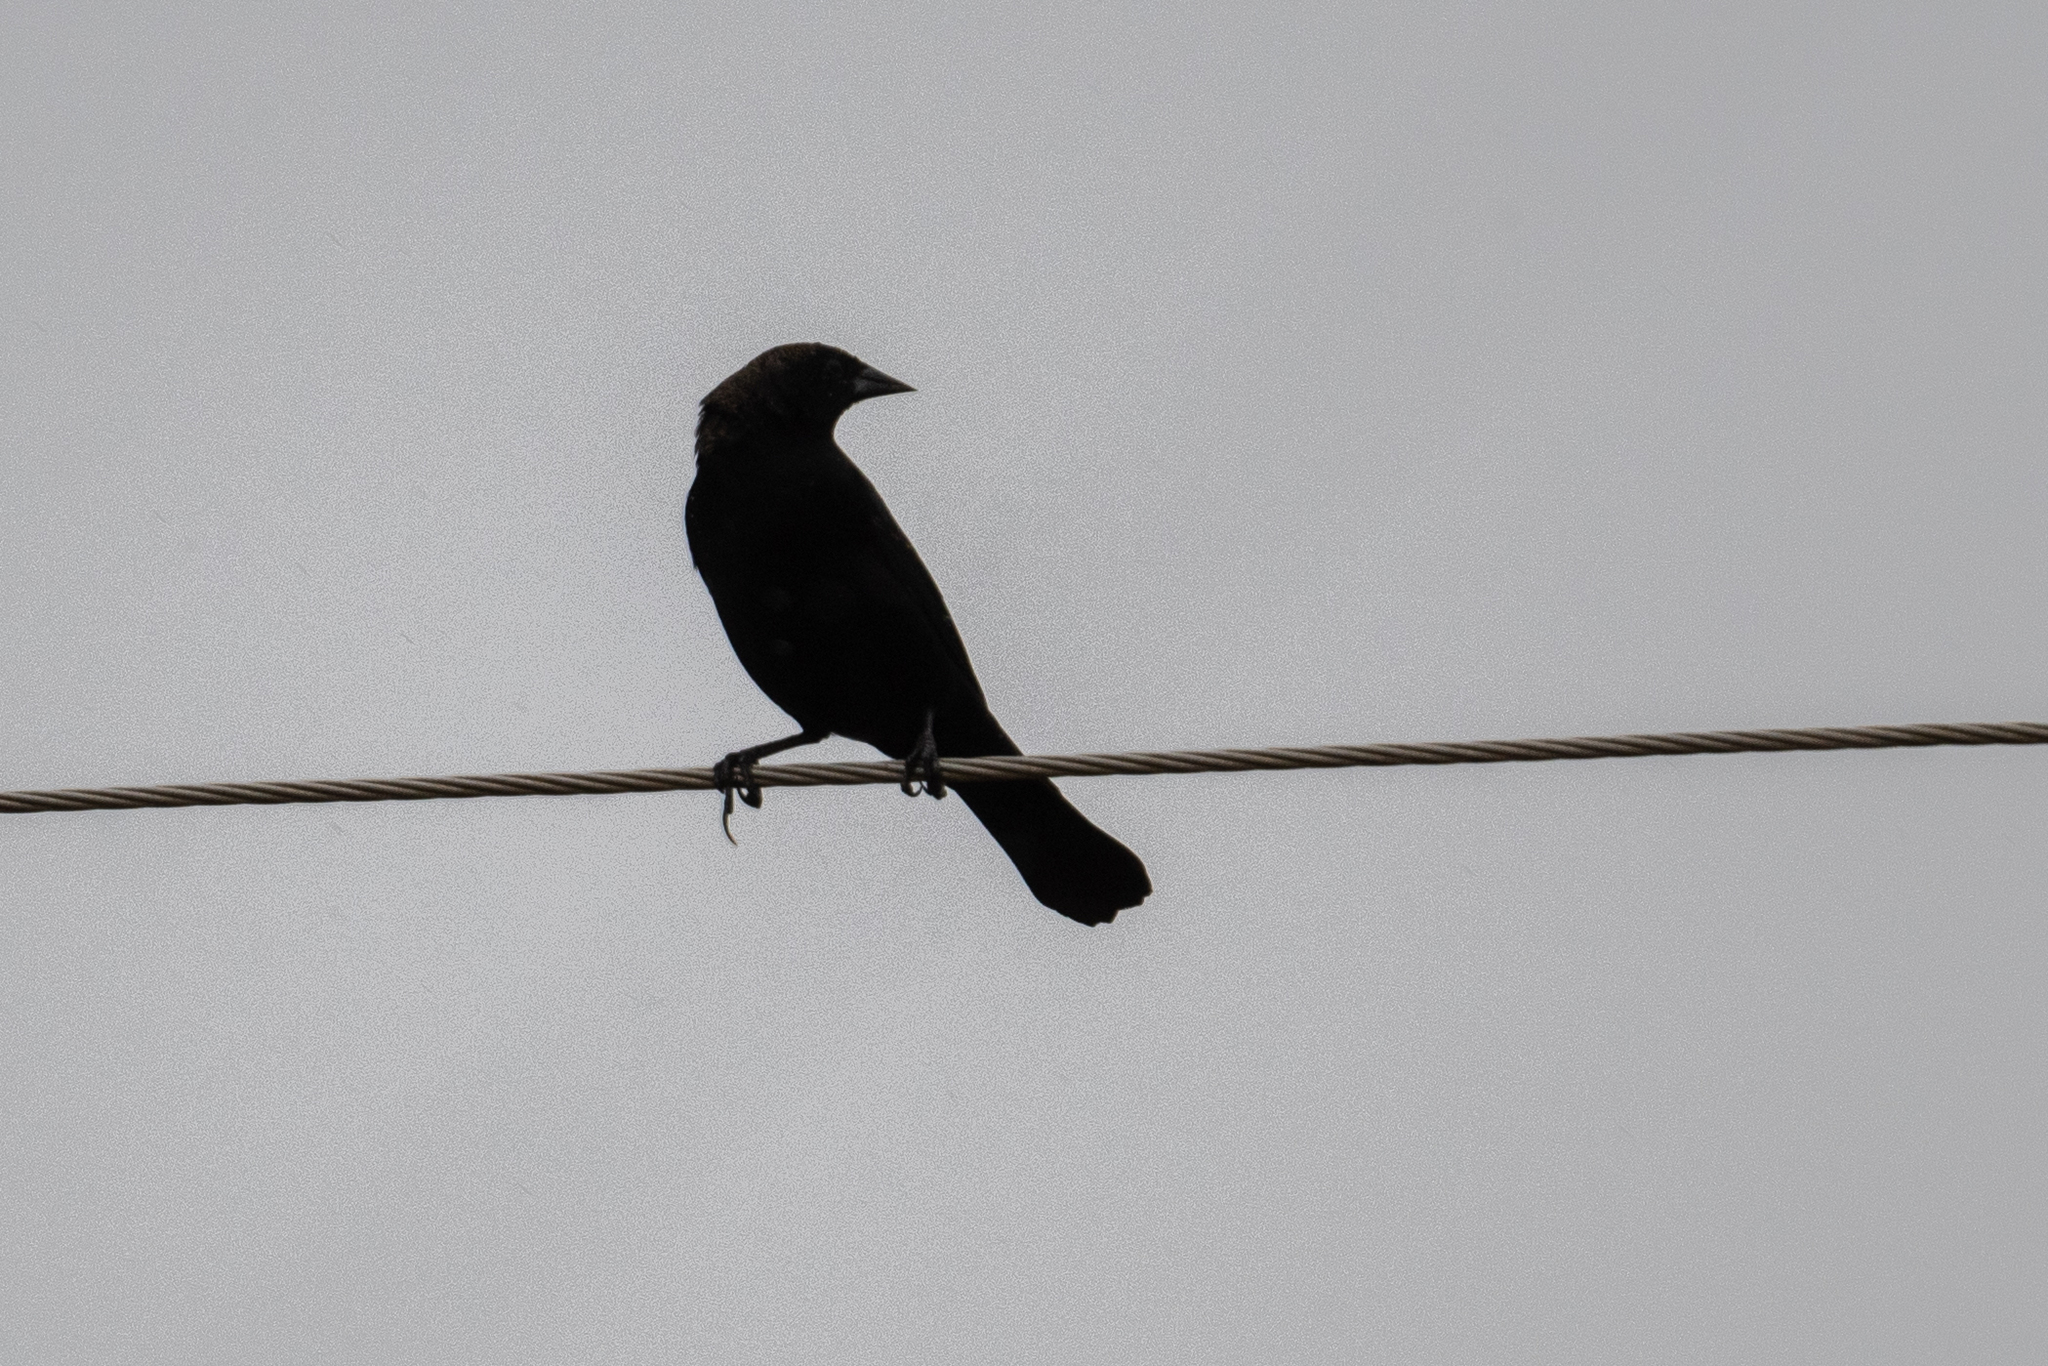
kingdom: Animalia
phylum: Chordata
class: Aves
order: Passeriformes
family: Icteridae
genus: Agelaius
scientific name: Agelaius phoeniceus
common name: Red-winged blackbird
